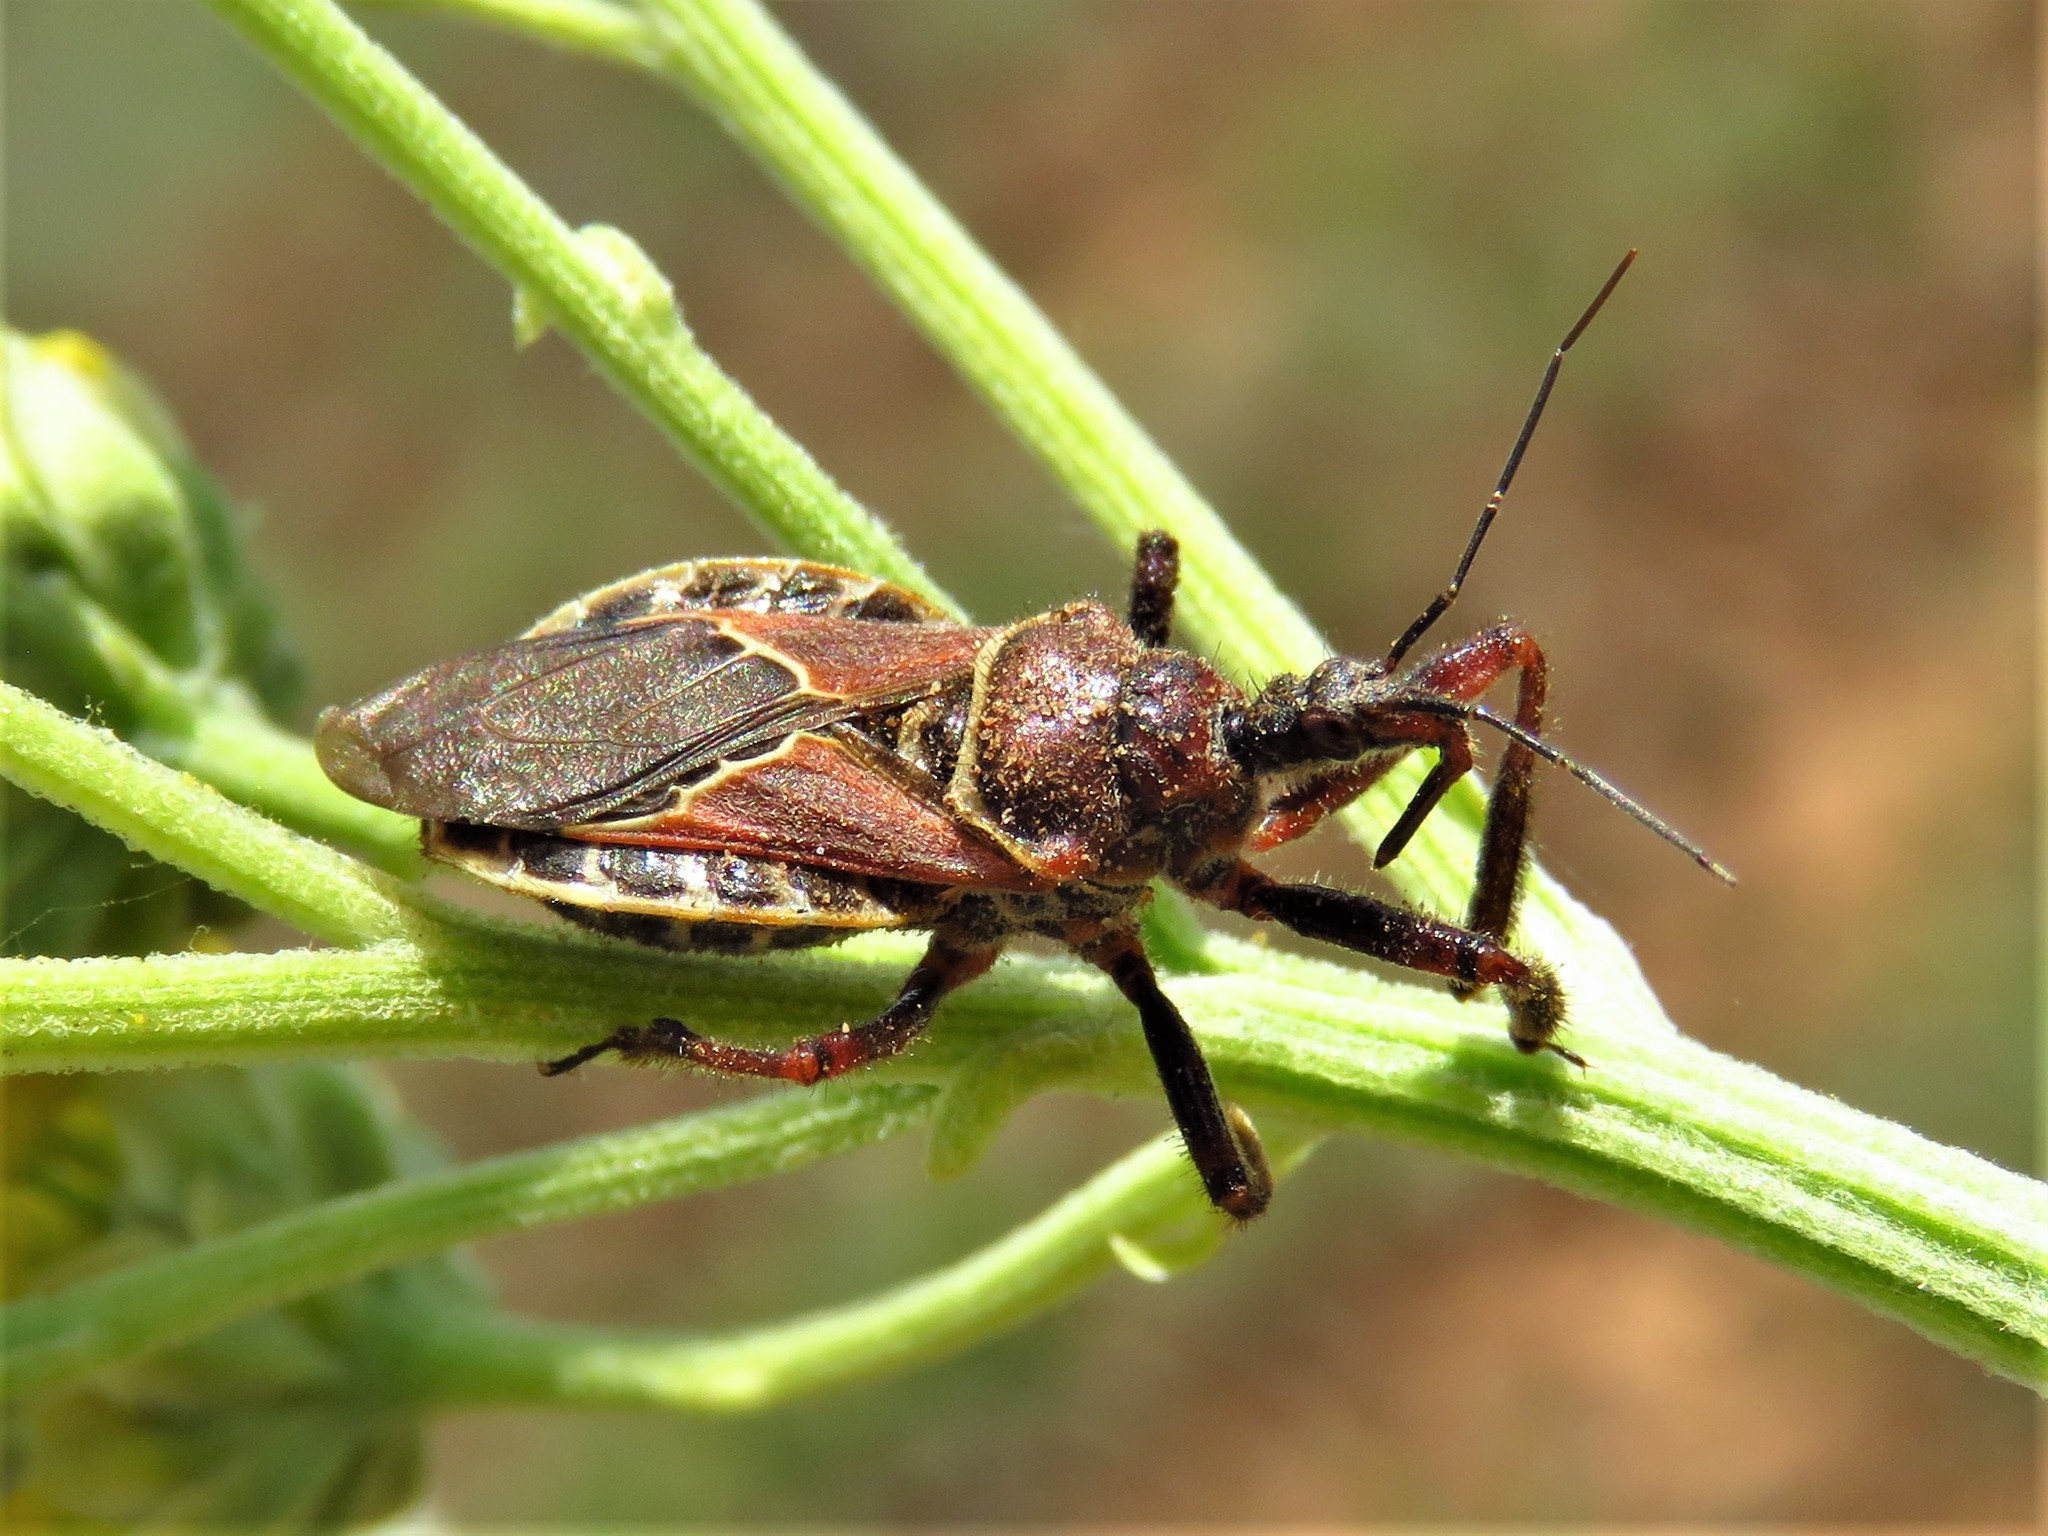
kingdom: Animalia
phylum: Arthropoda
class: Insecta
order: Hemiptera
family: Reduviidae
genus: Apiomerus
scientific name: Apiomerus spissipes
